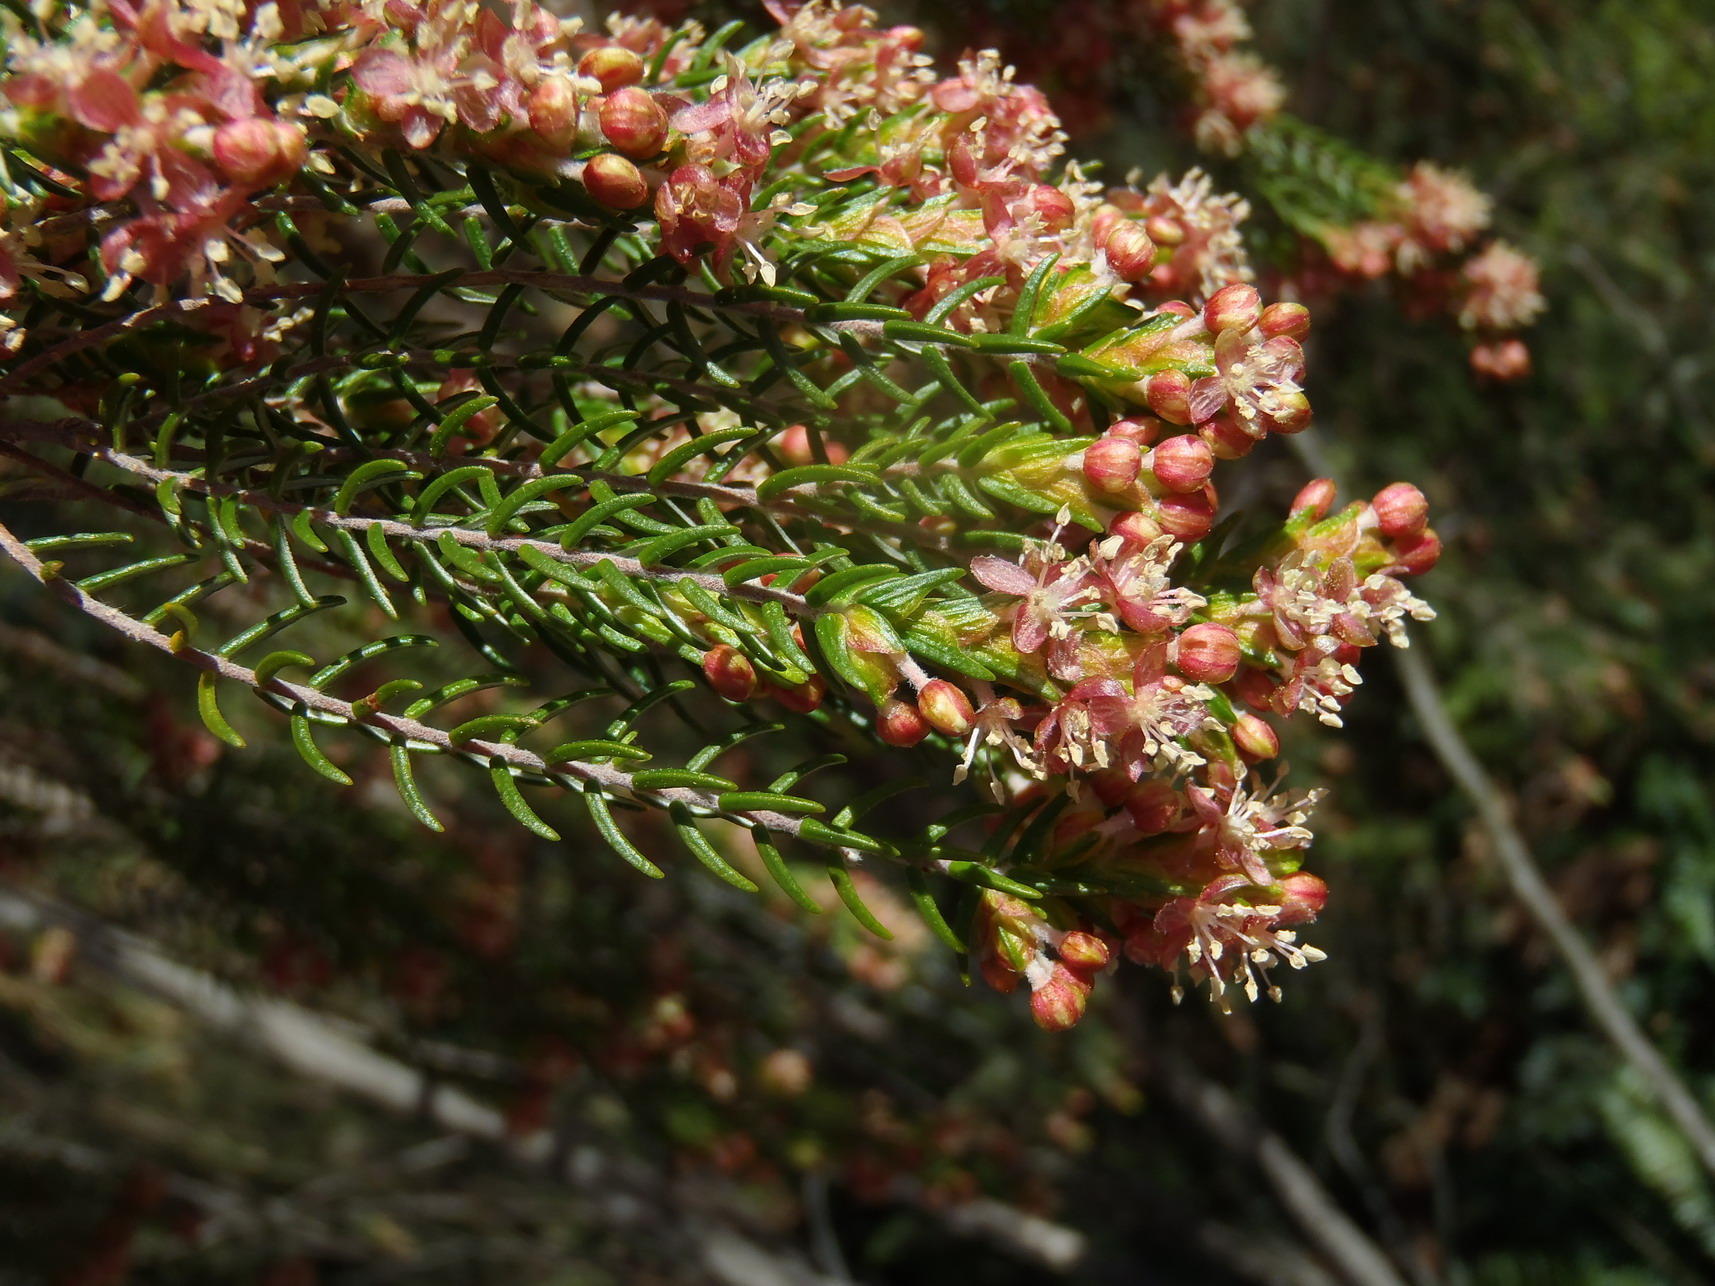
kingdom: Plantae
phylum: Tracheophyta
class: Magnoliopsida
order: Malvales
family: Thymelaeaceae
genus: Passerina
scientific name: Passerina falcifolia
